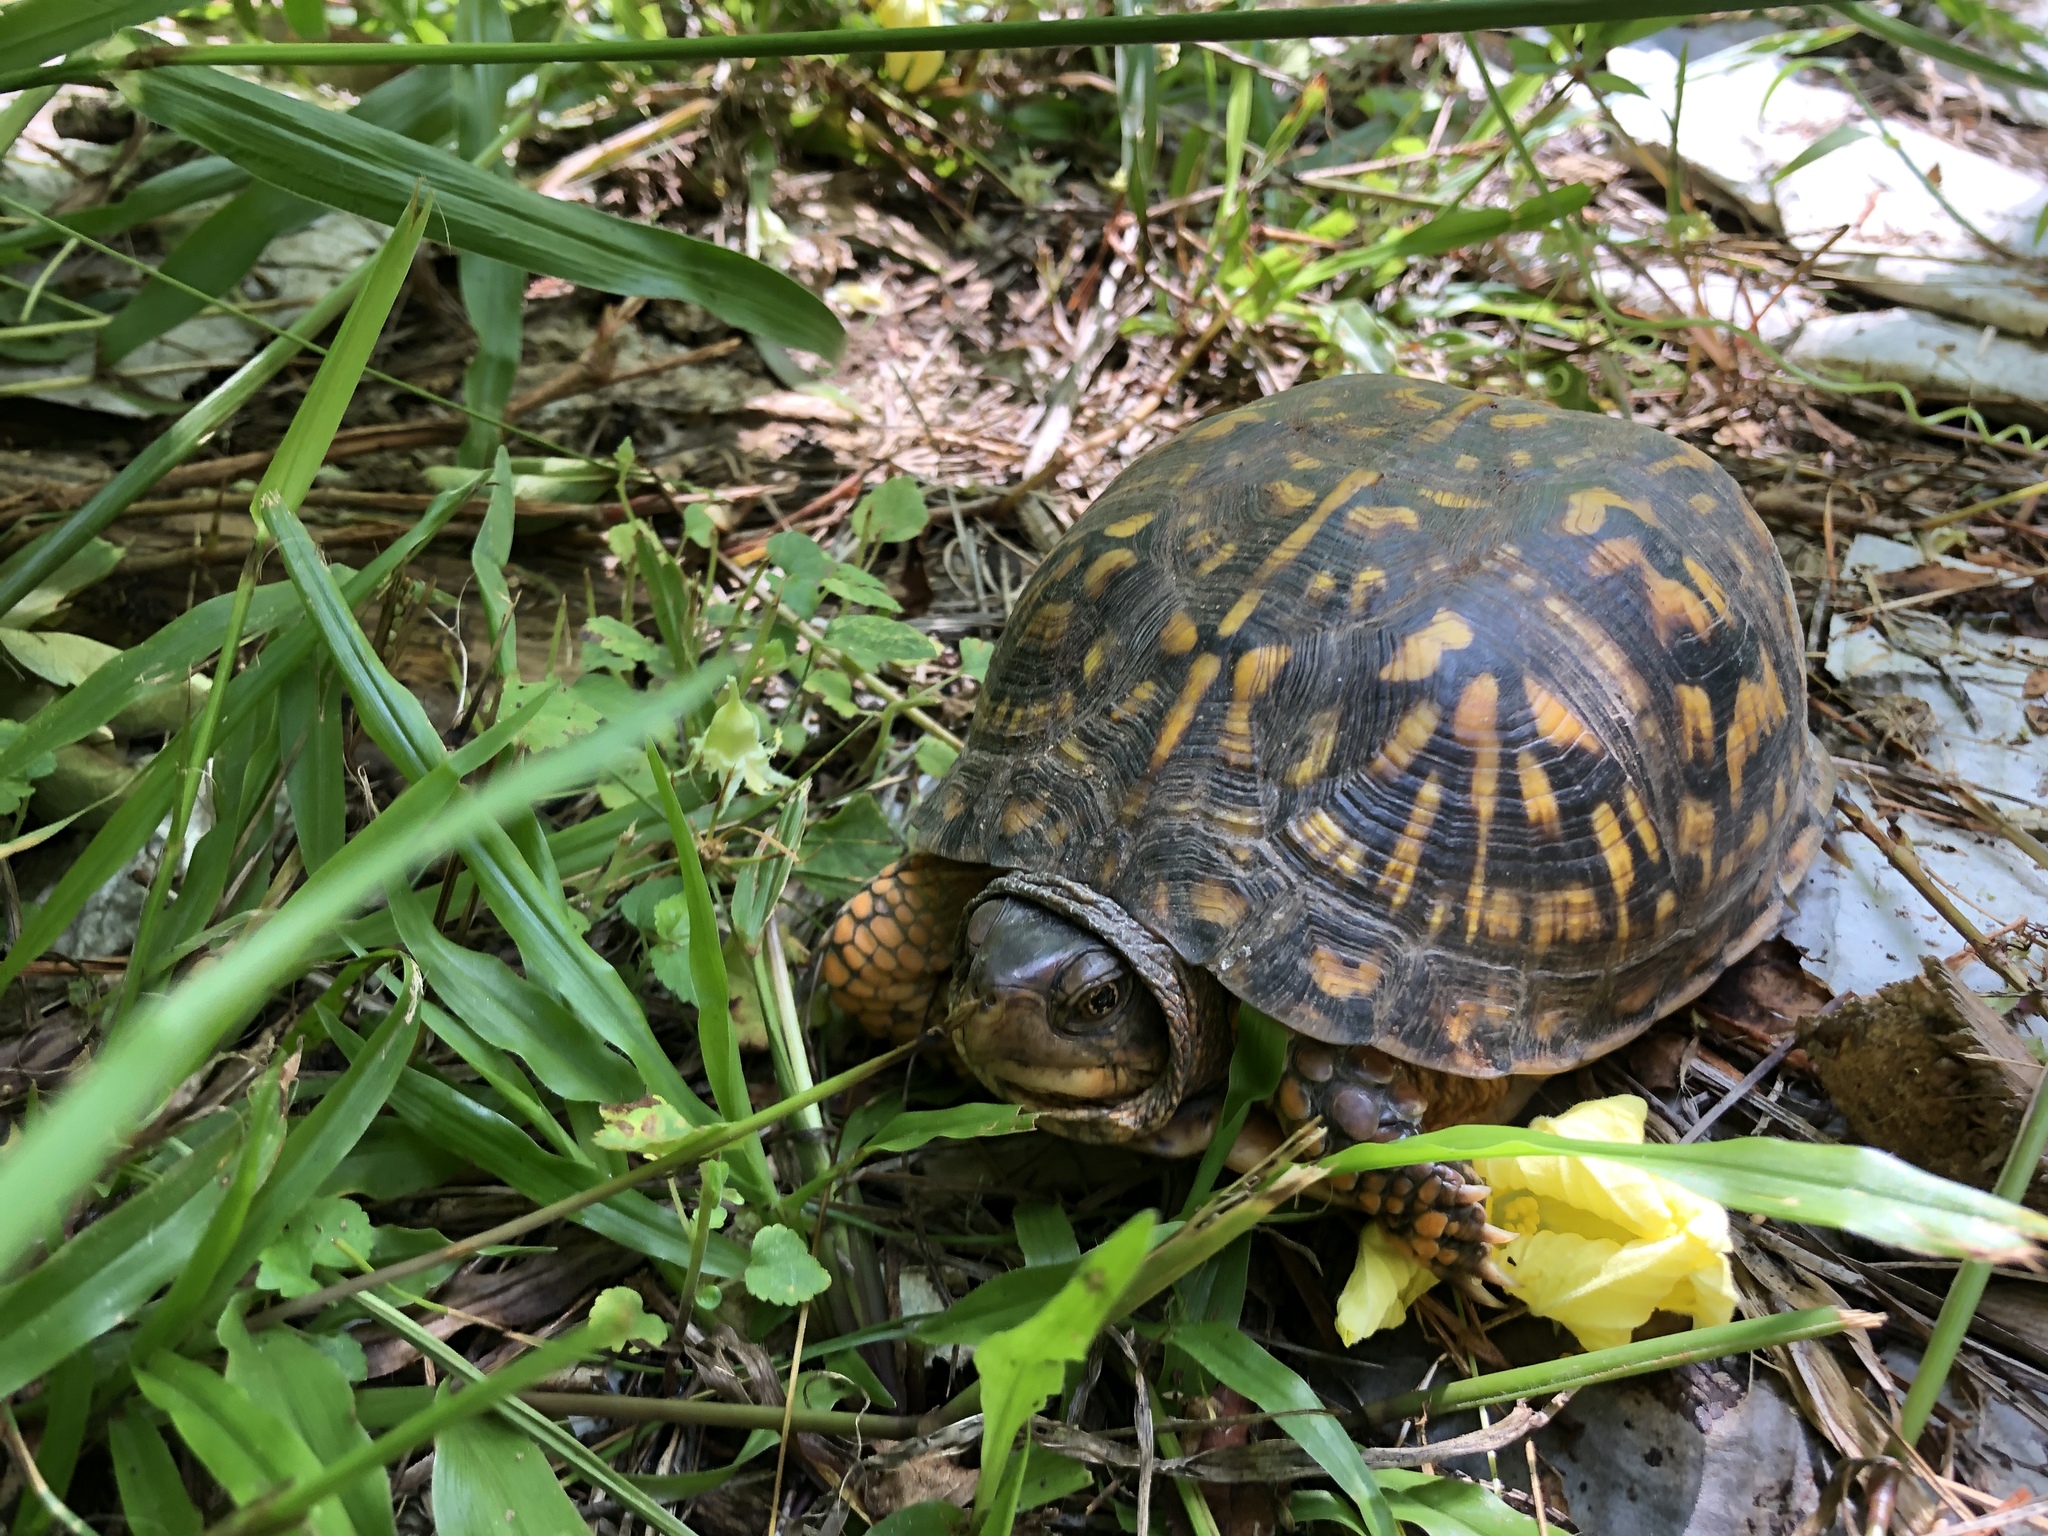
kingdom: Animalia
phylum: Chordata
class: Testudines
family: Emydidae
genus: Terrapene
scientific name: Terrapene carolina
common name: Common box turtle
